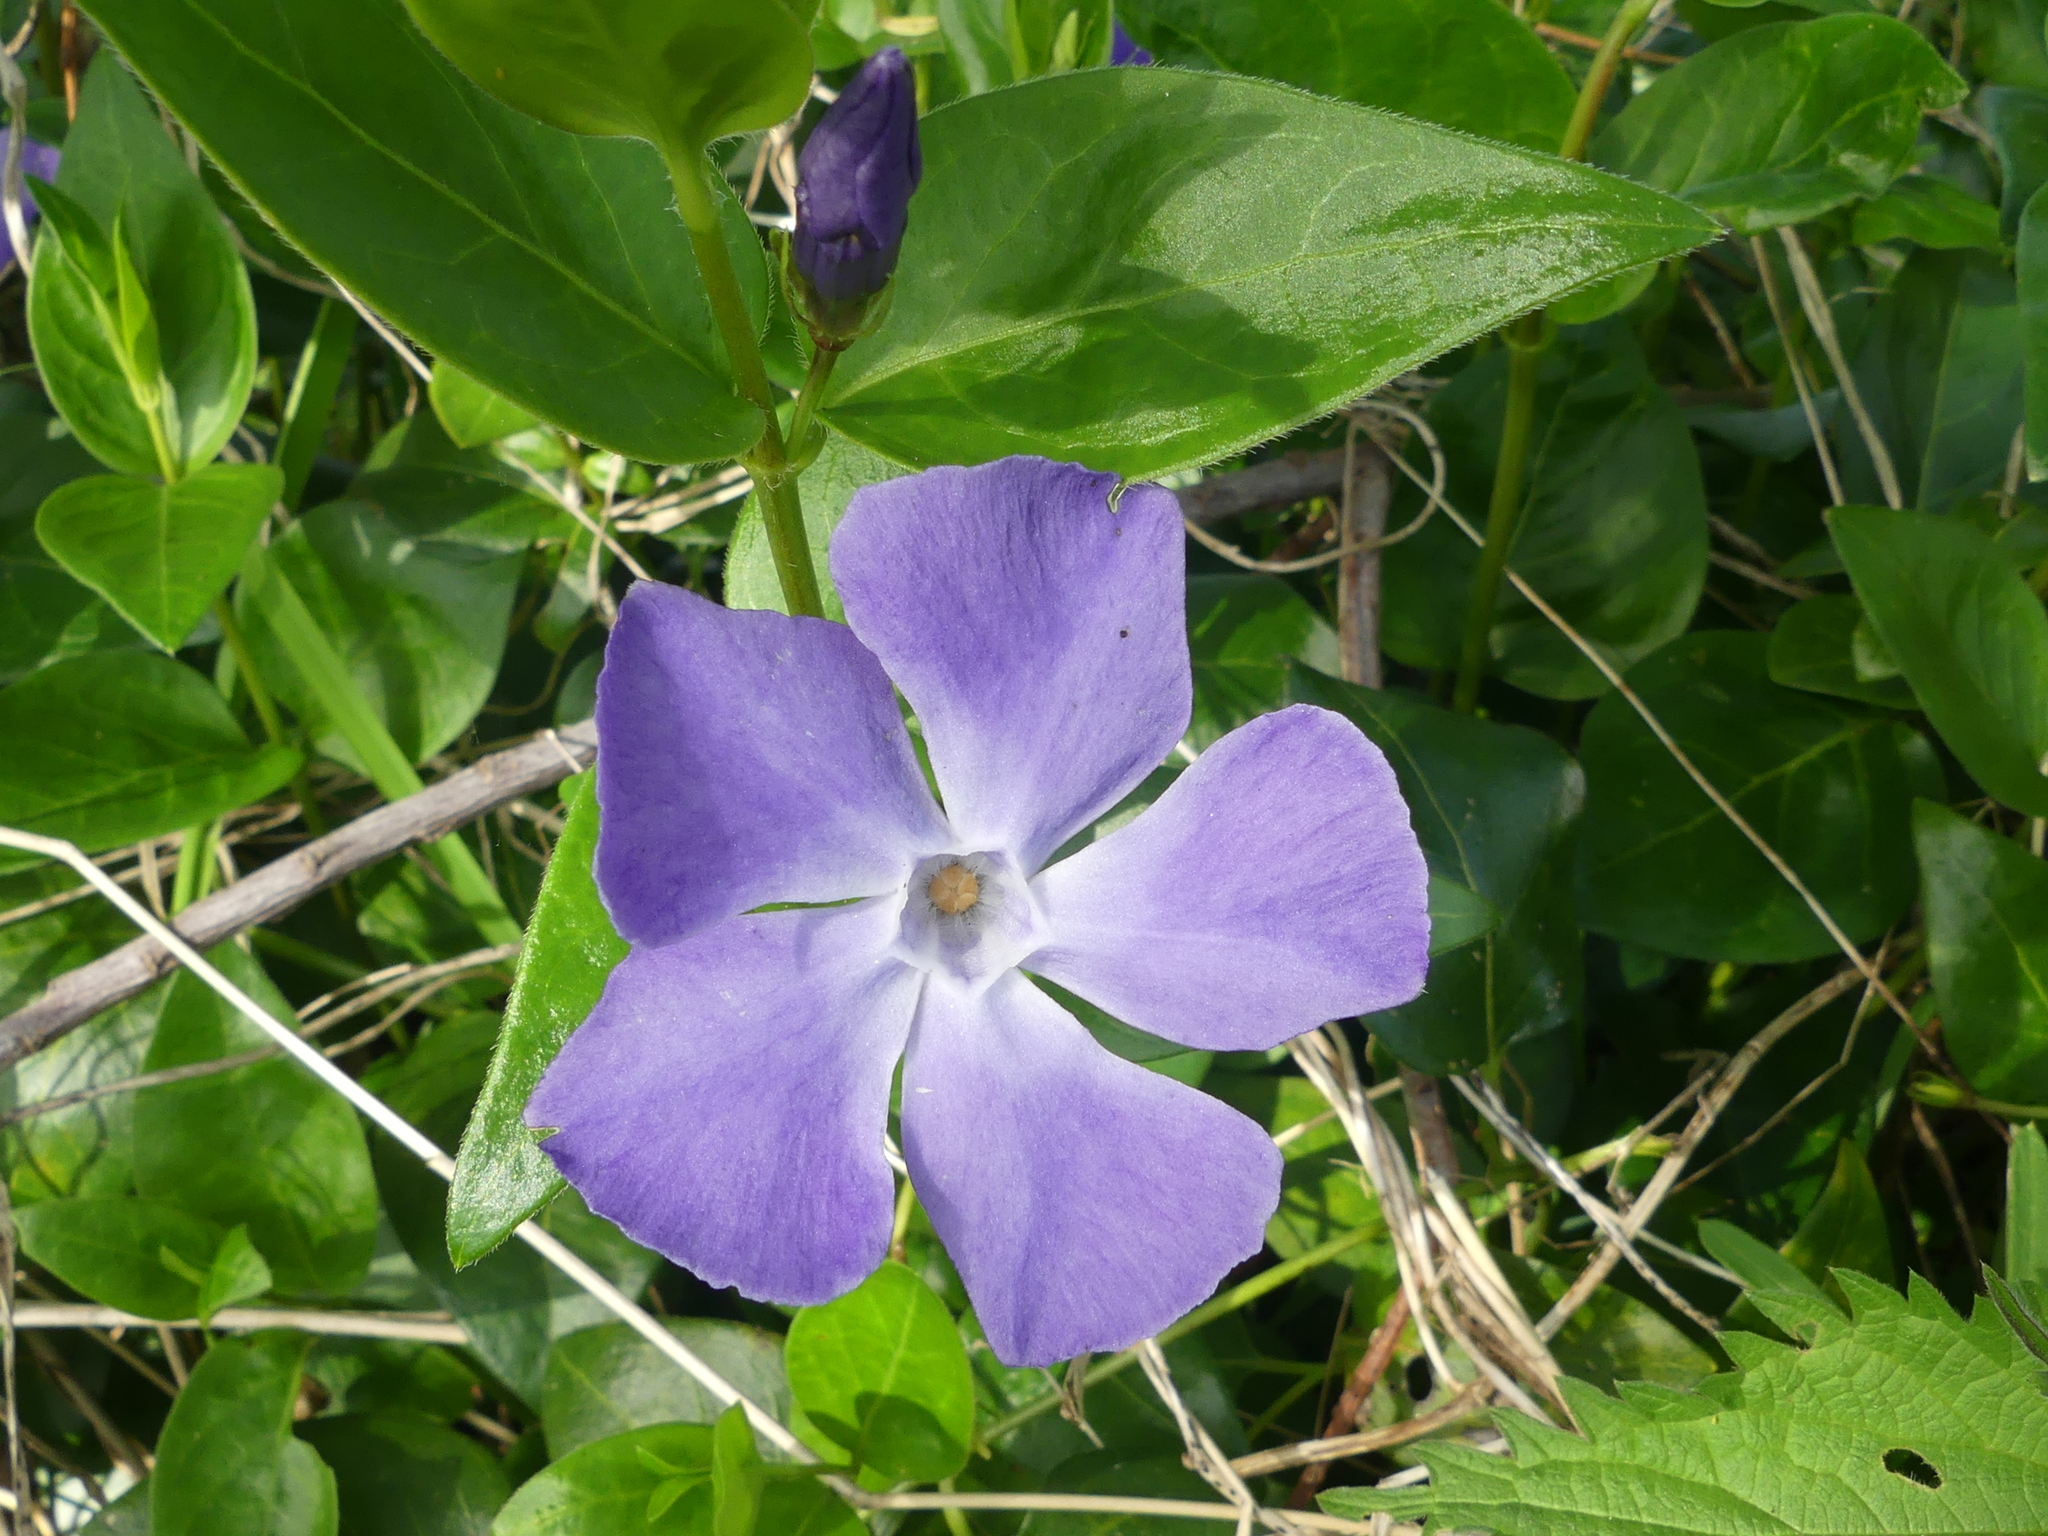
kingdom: Plantae
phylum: Tracheophyta
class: Magnoliopsida
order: Gentianales
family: Apocynaceae
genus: Vinca
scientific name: Vinca major
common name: Greater periwinkle
